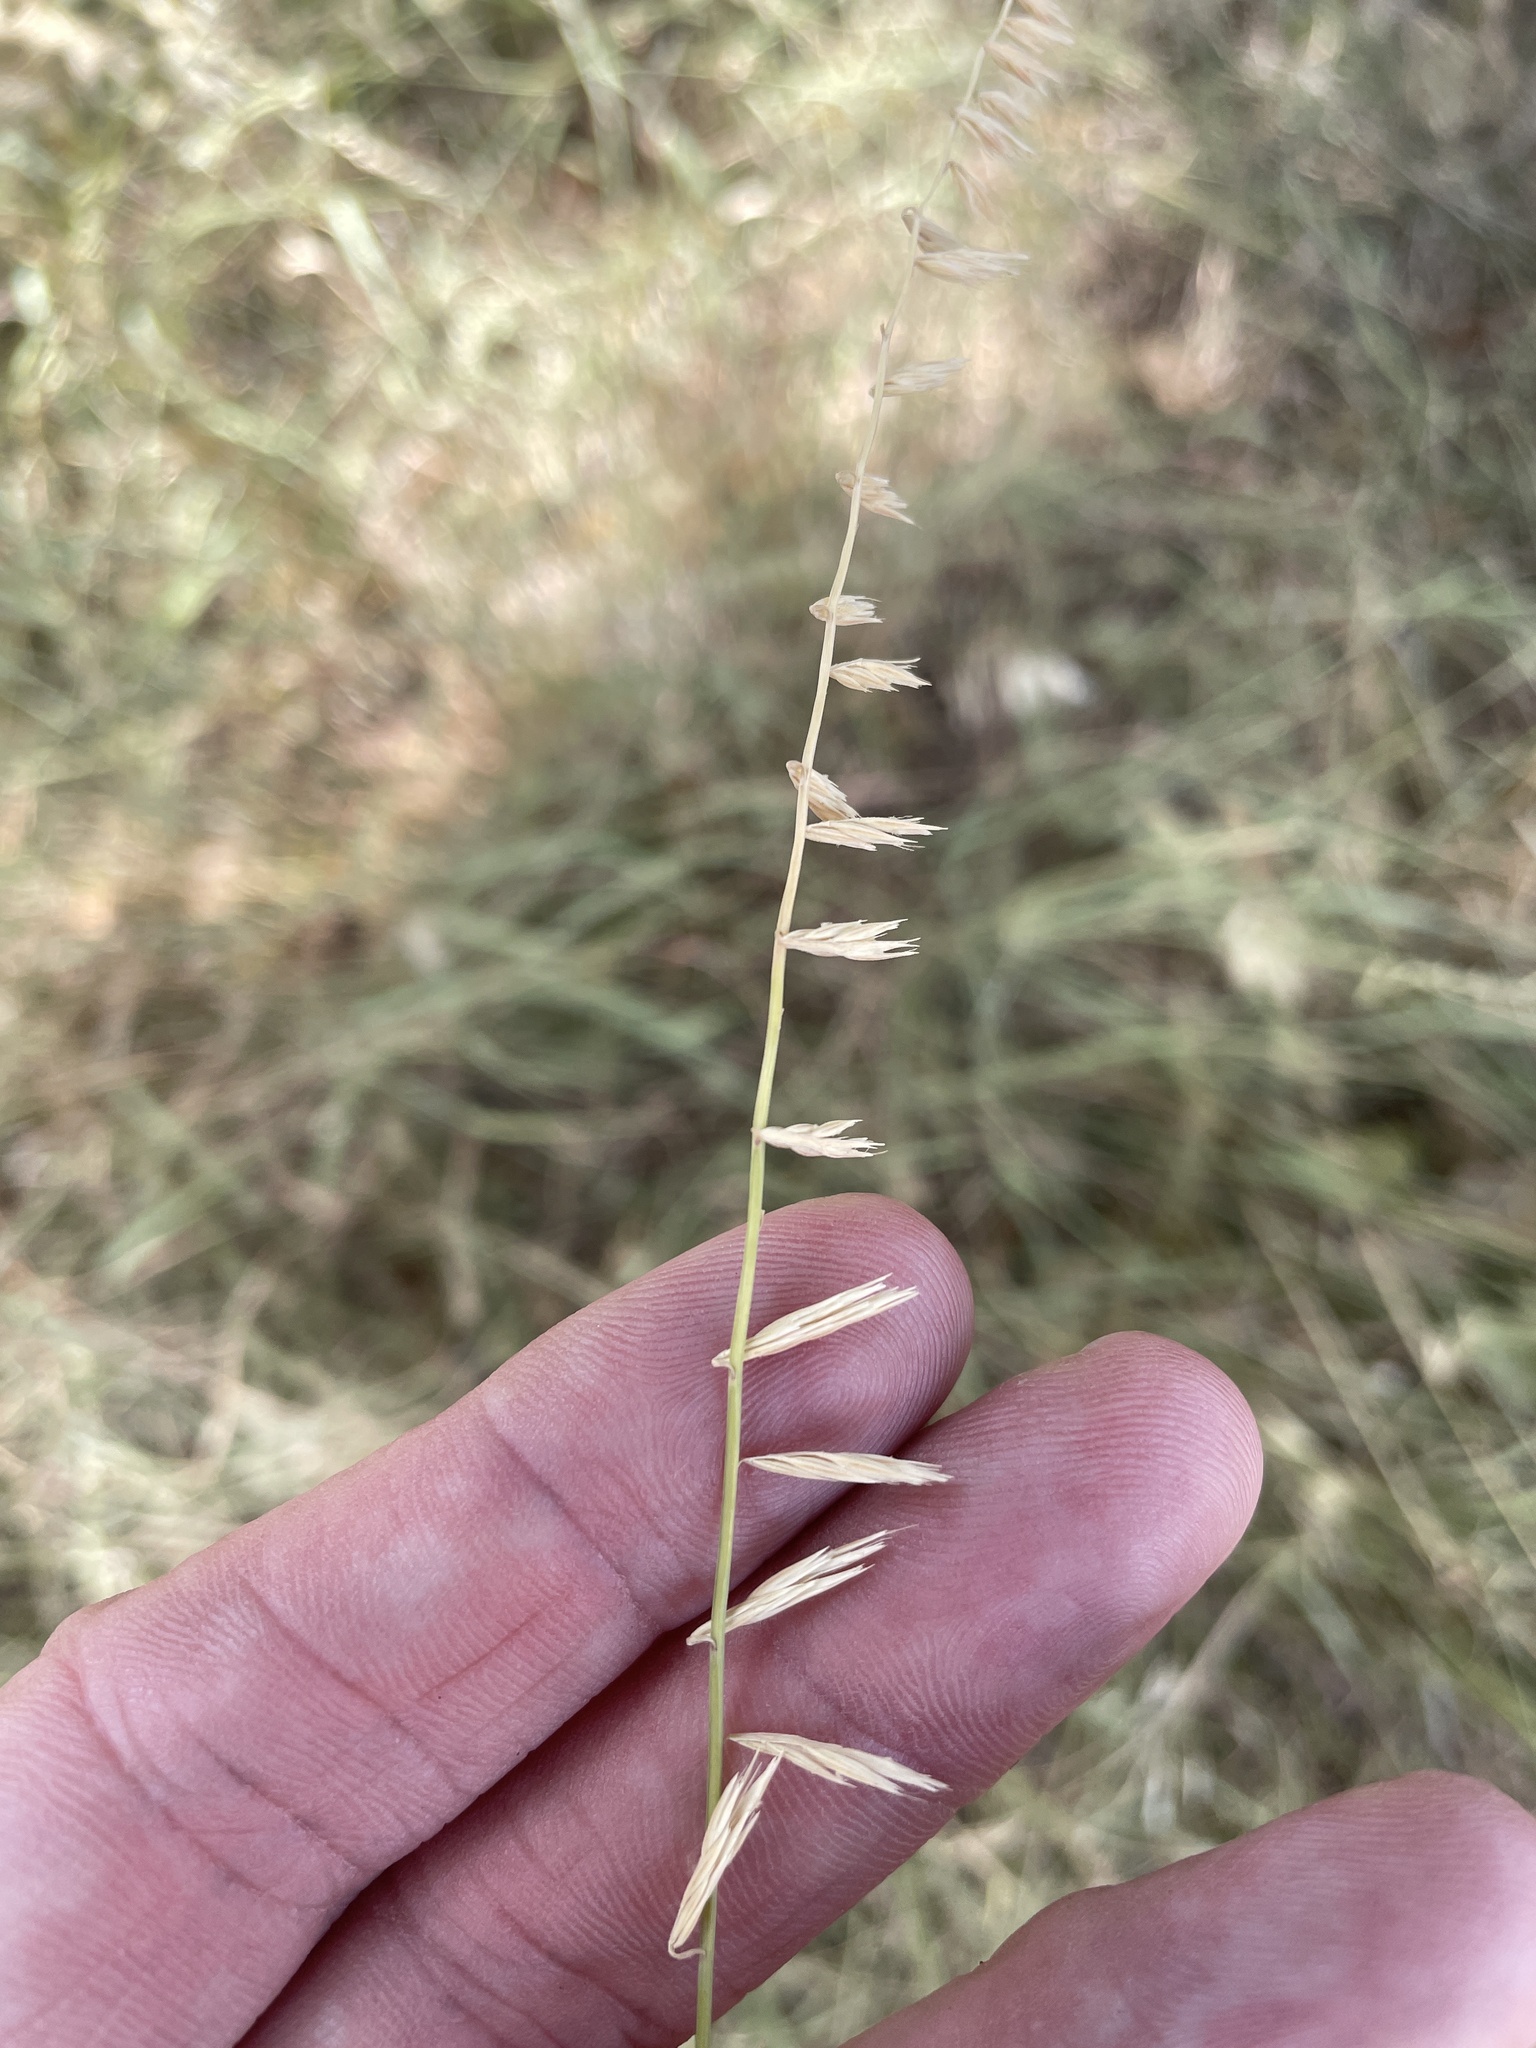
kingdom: Plantae
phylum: Tracheophyta
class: Liliopsida
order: Poales
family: Poaceae
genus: Bouteloua
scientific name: Bouteloua curtipendula
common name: Side-oats grama
